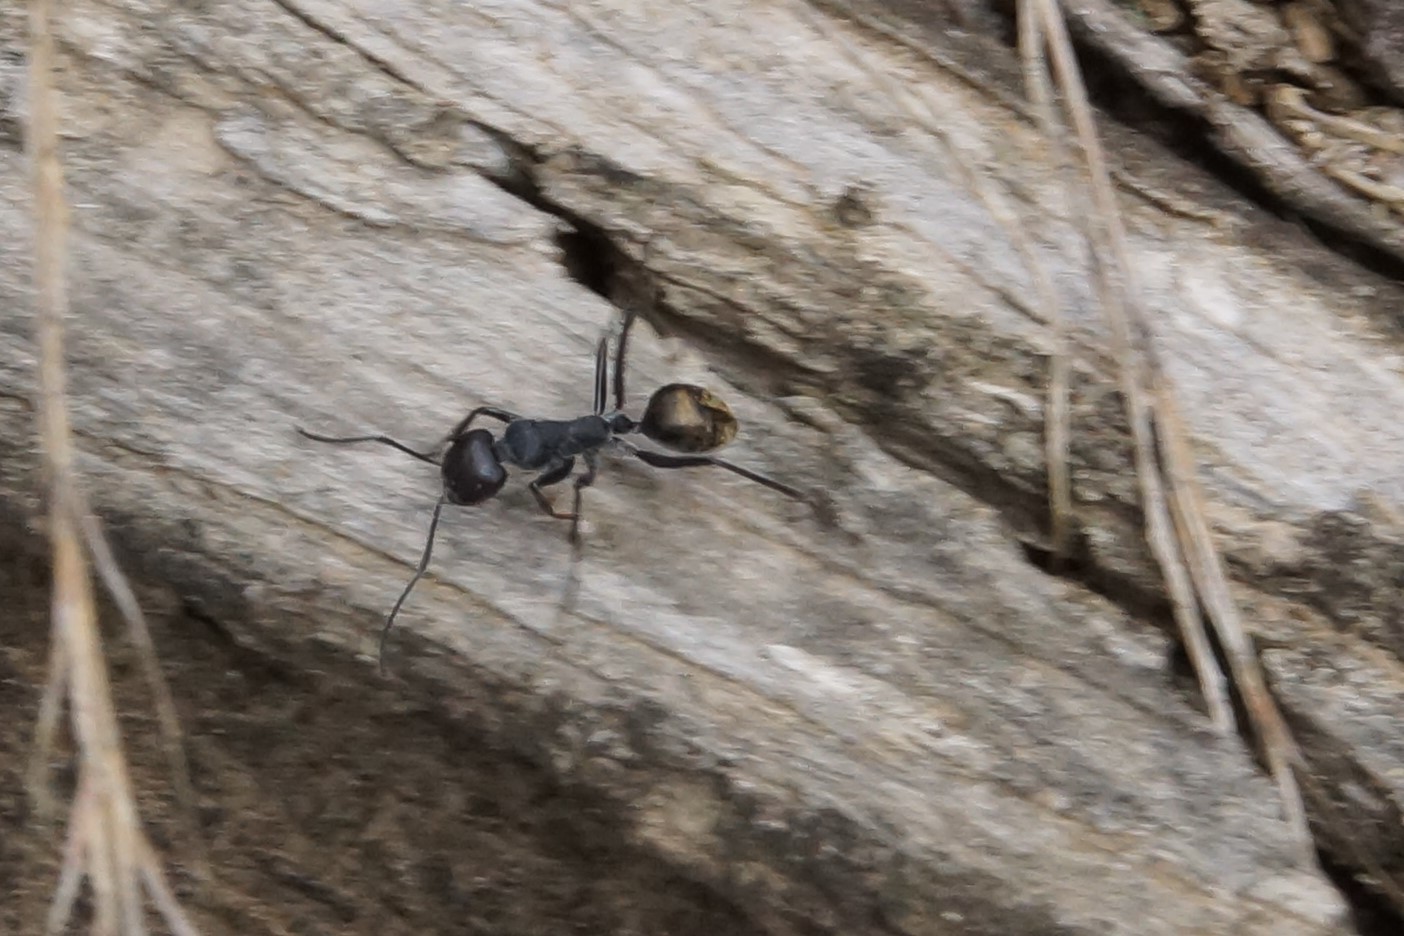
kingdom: Animalia
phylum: Arthropoda
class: Insecta
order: Hymenoptera
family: Formicidae
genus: Camponotus
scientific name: Camponotus suffusus
